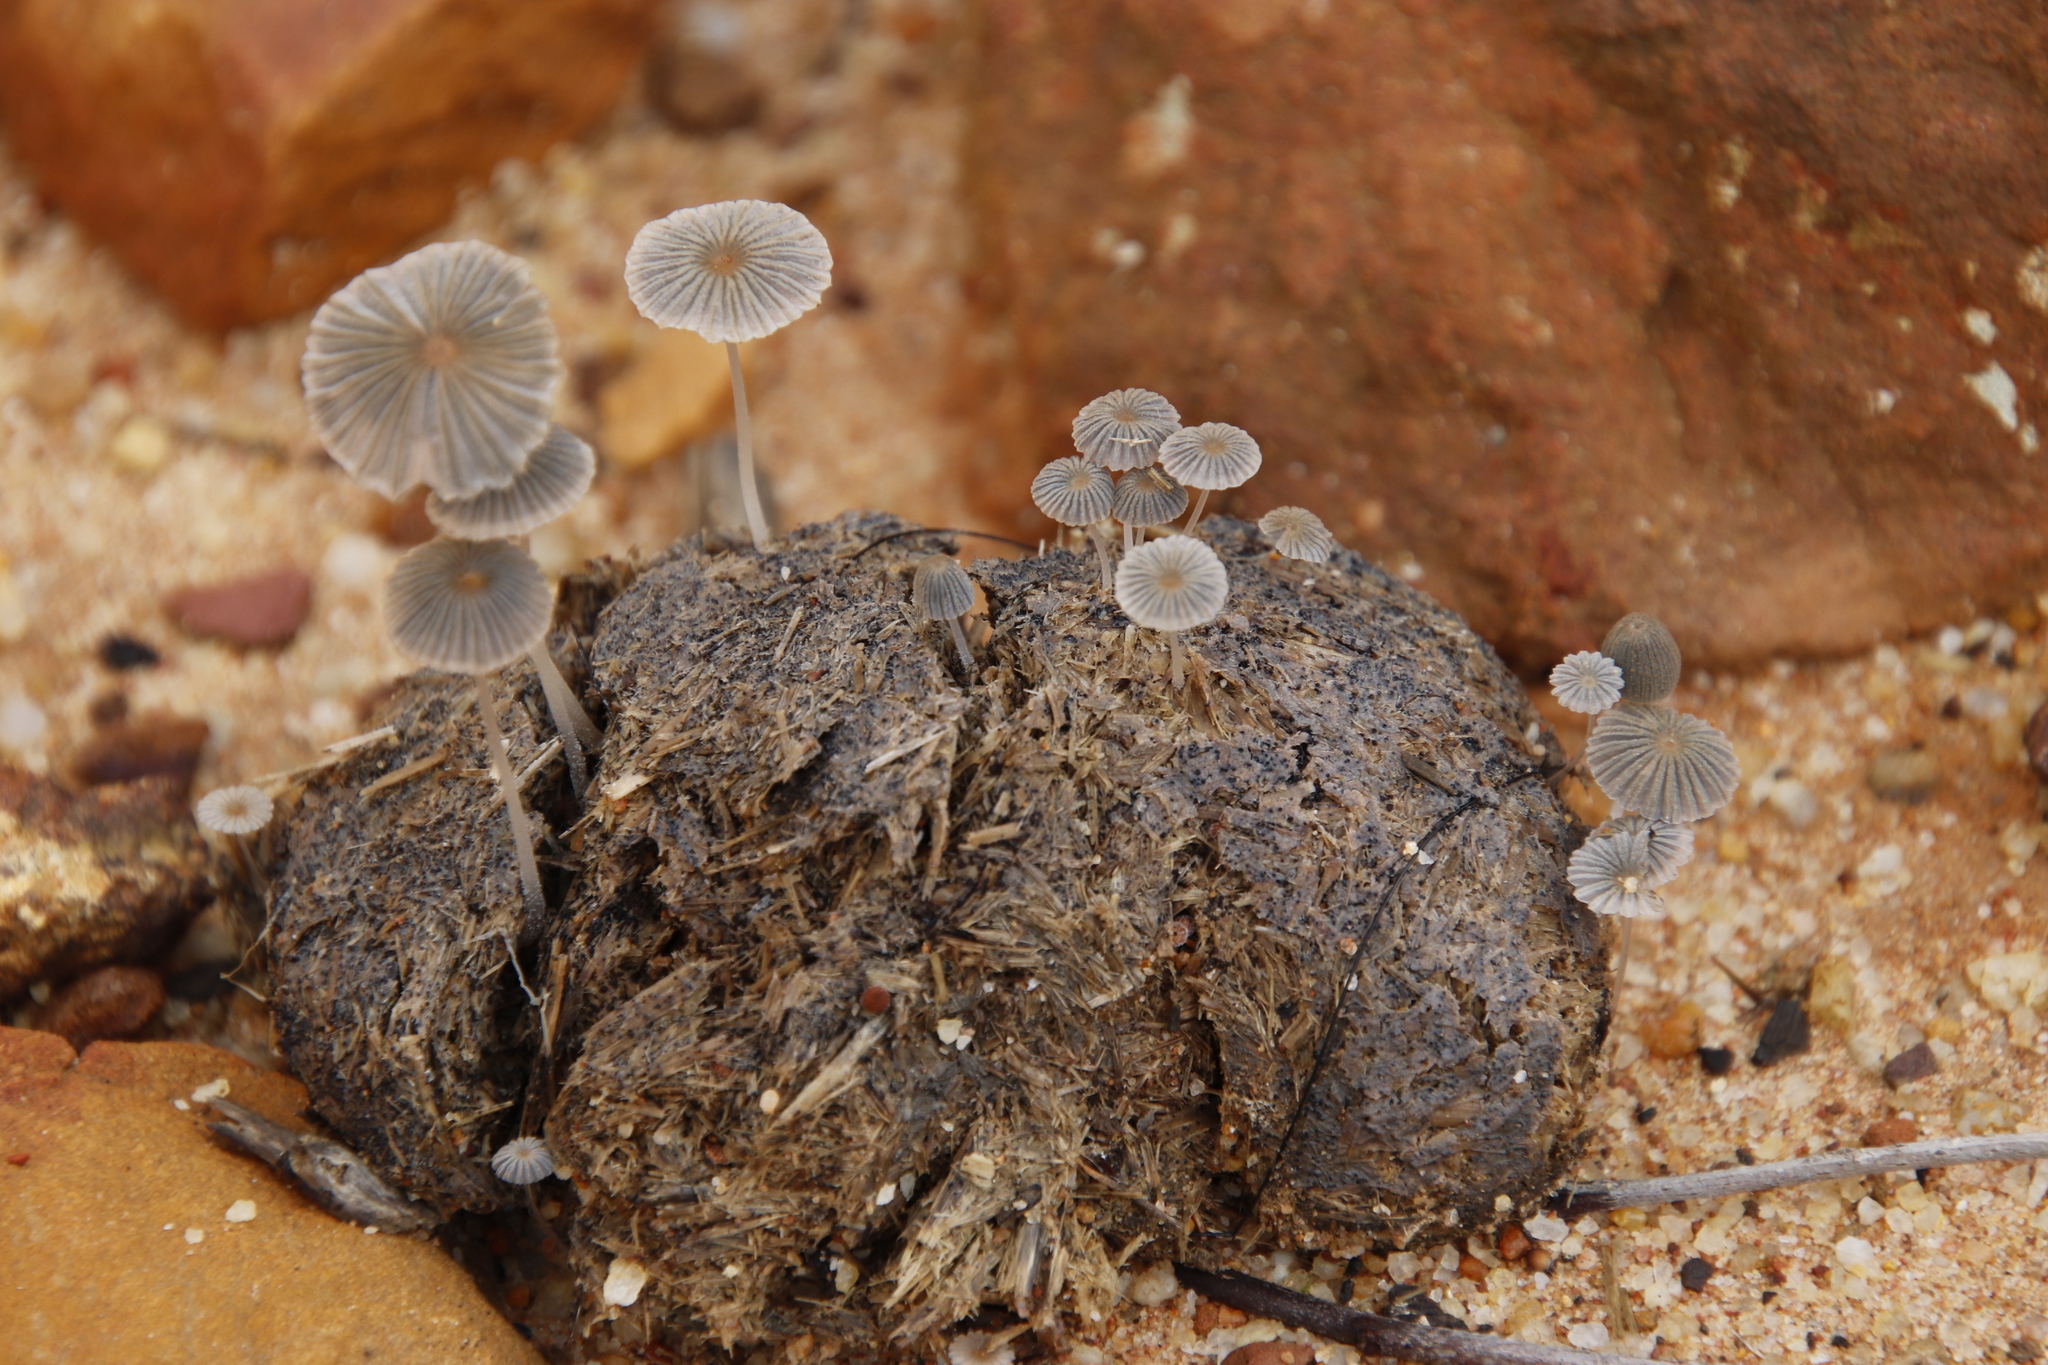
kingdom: Animalia
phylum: Chordata
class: Mammalia
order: Perissodactyla
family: Equidae
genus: Equus
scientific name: Equus caballus
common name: Horse
